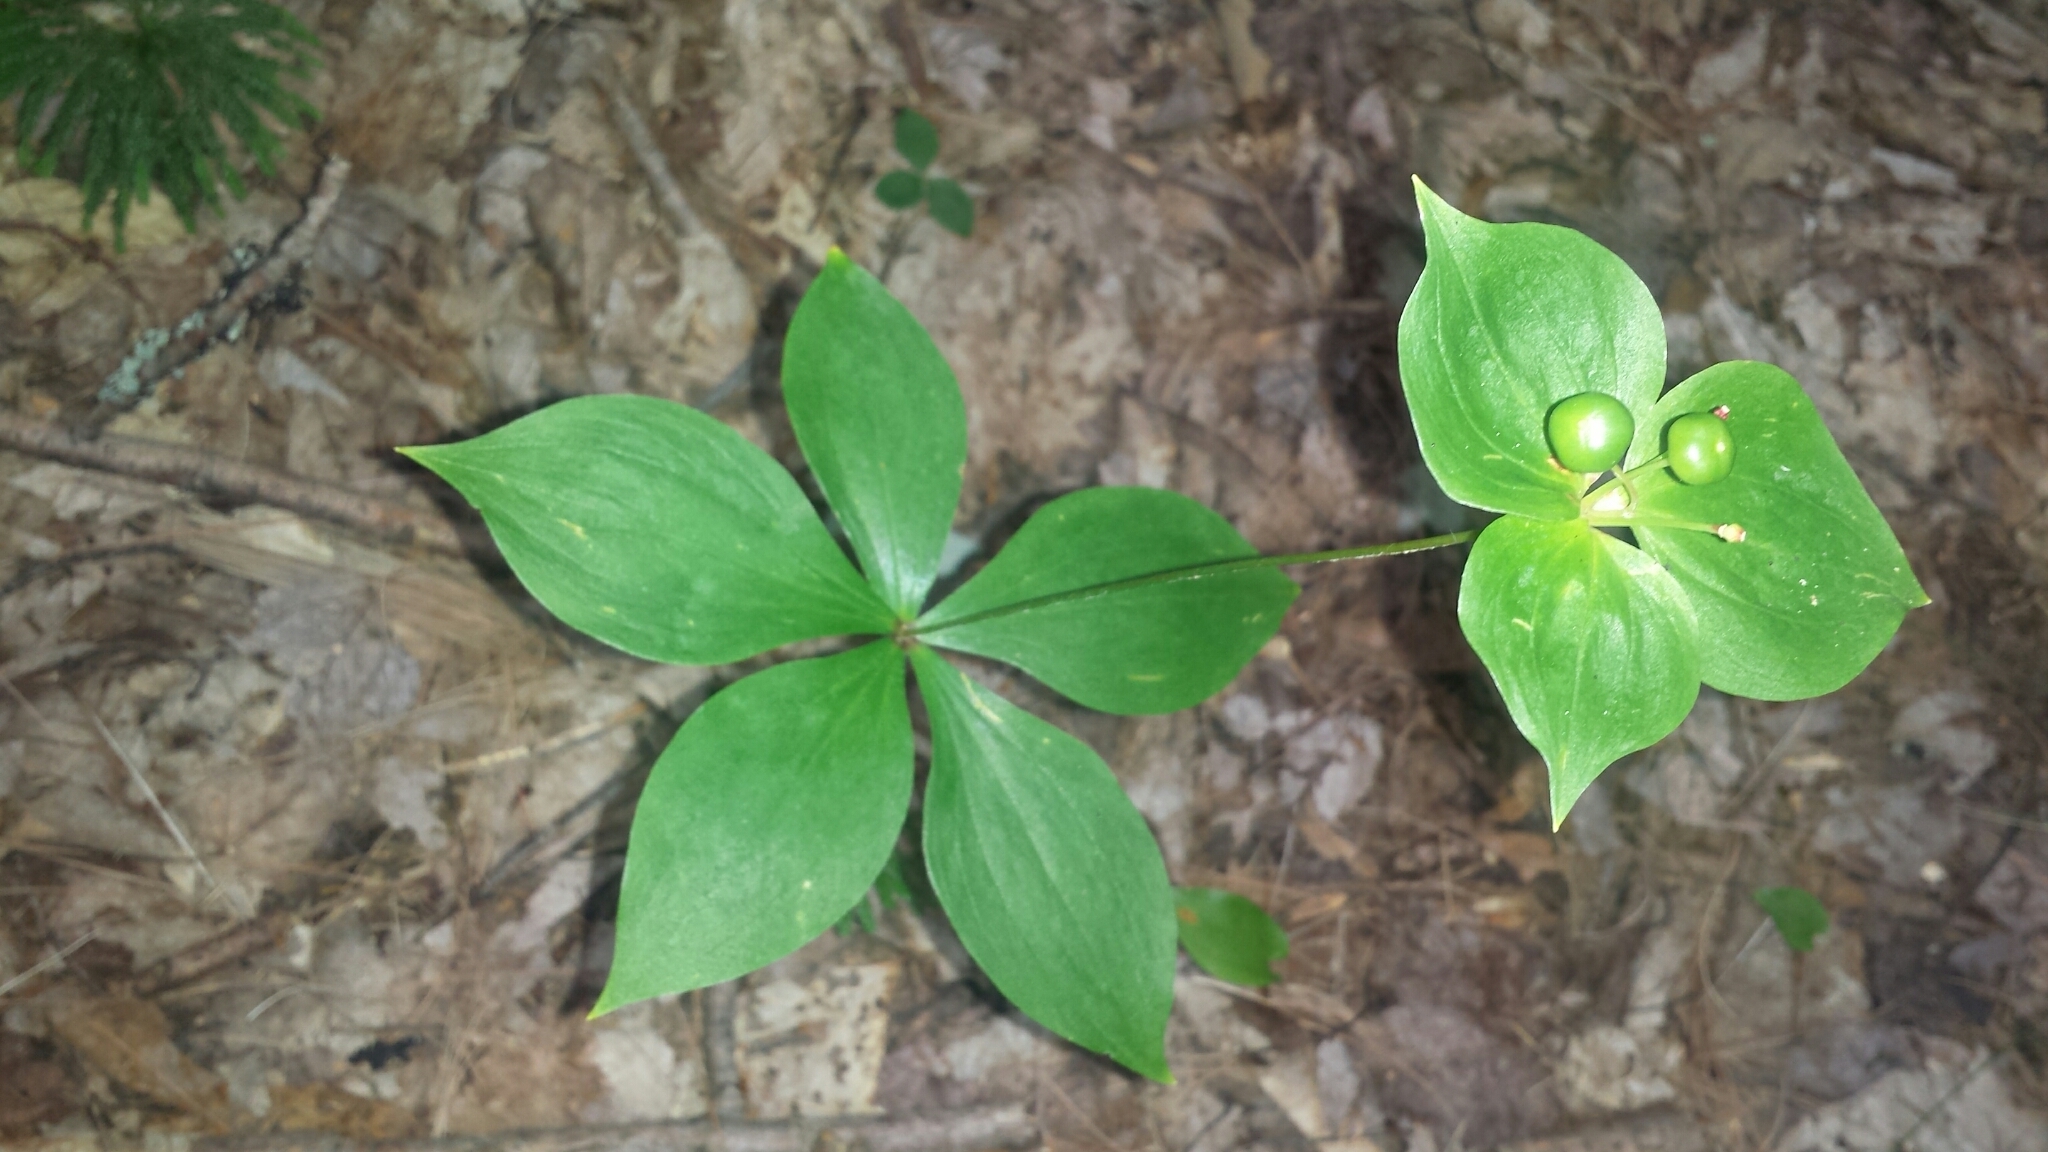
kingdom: Plantae
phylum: Tracheophyta
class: Liliopsida
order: Liliales
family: Liliaceae
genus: Medeola
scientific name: Medeola virginiana
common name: Indian cucumber-root
